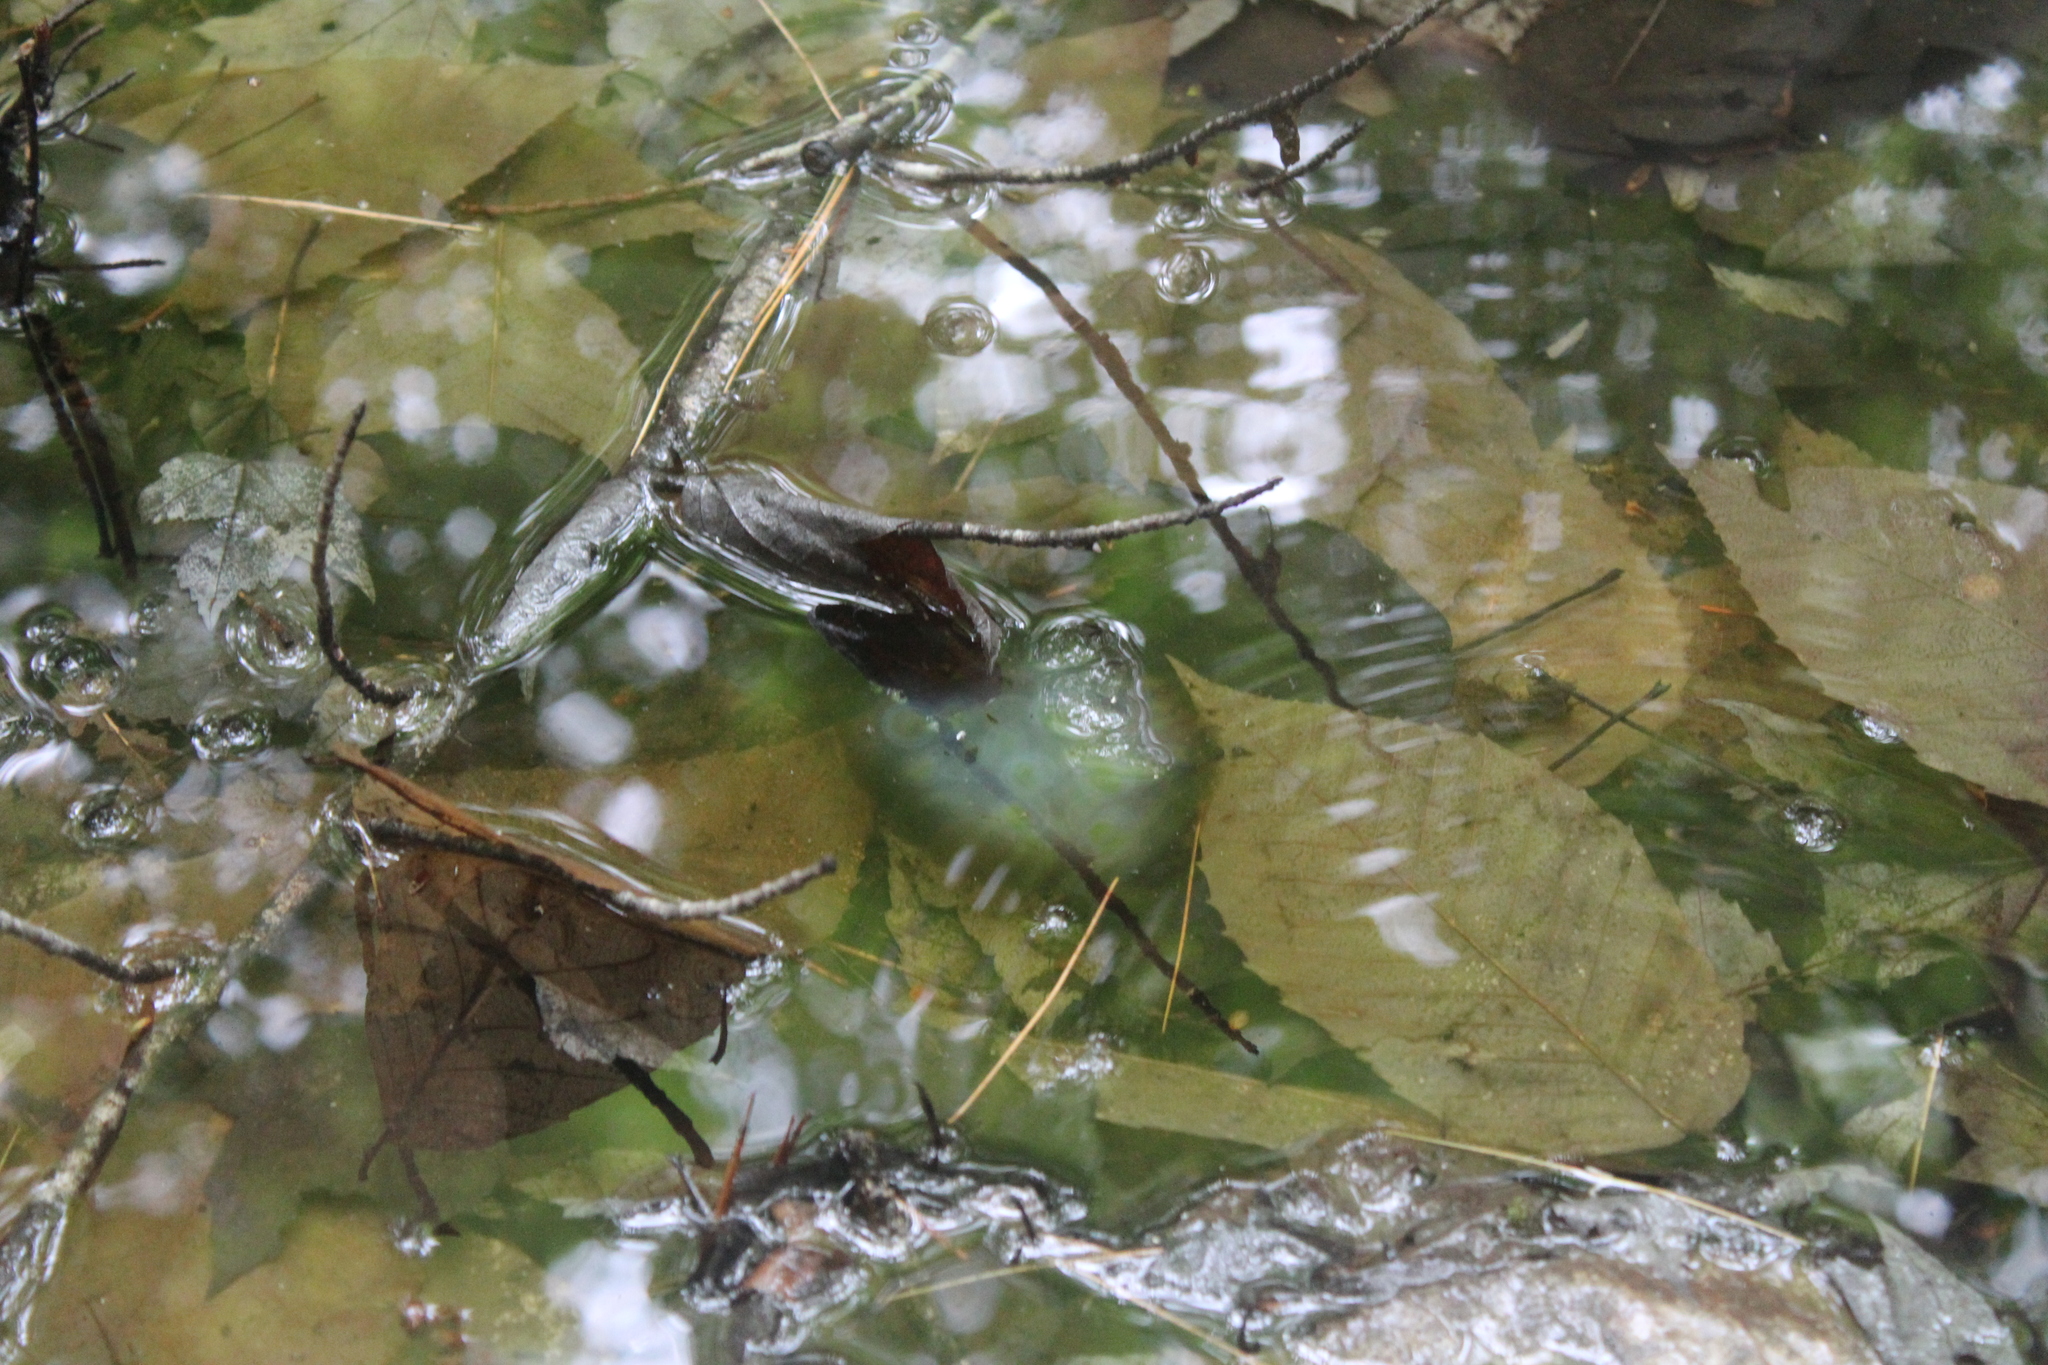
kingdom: Animalia
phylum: Chordata
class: Amphibia
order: Caudata
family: Ambystomatidae
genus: Ambystoma
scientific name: Ambystoma maculatum
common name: Spotted salamander
